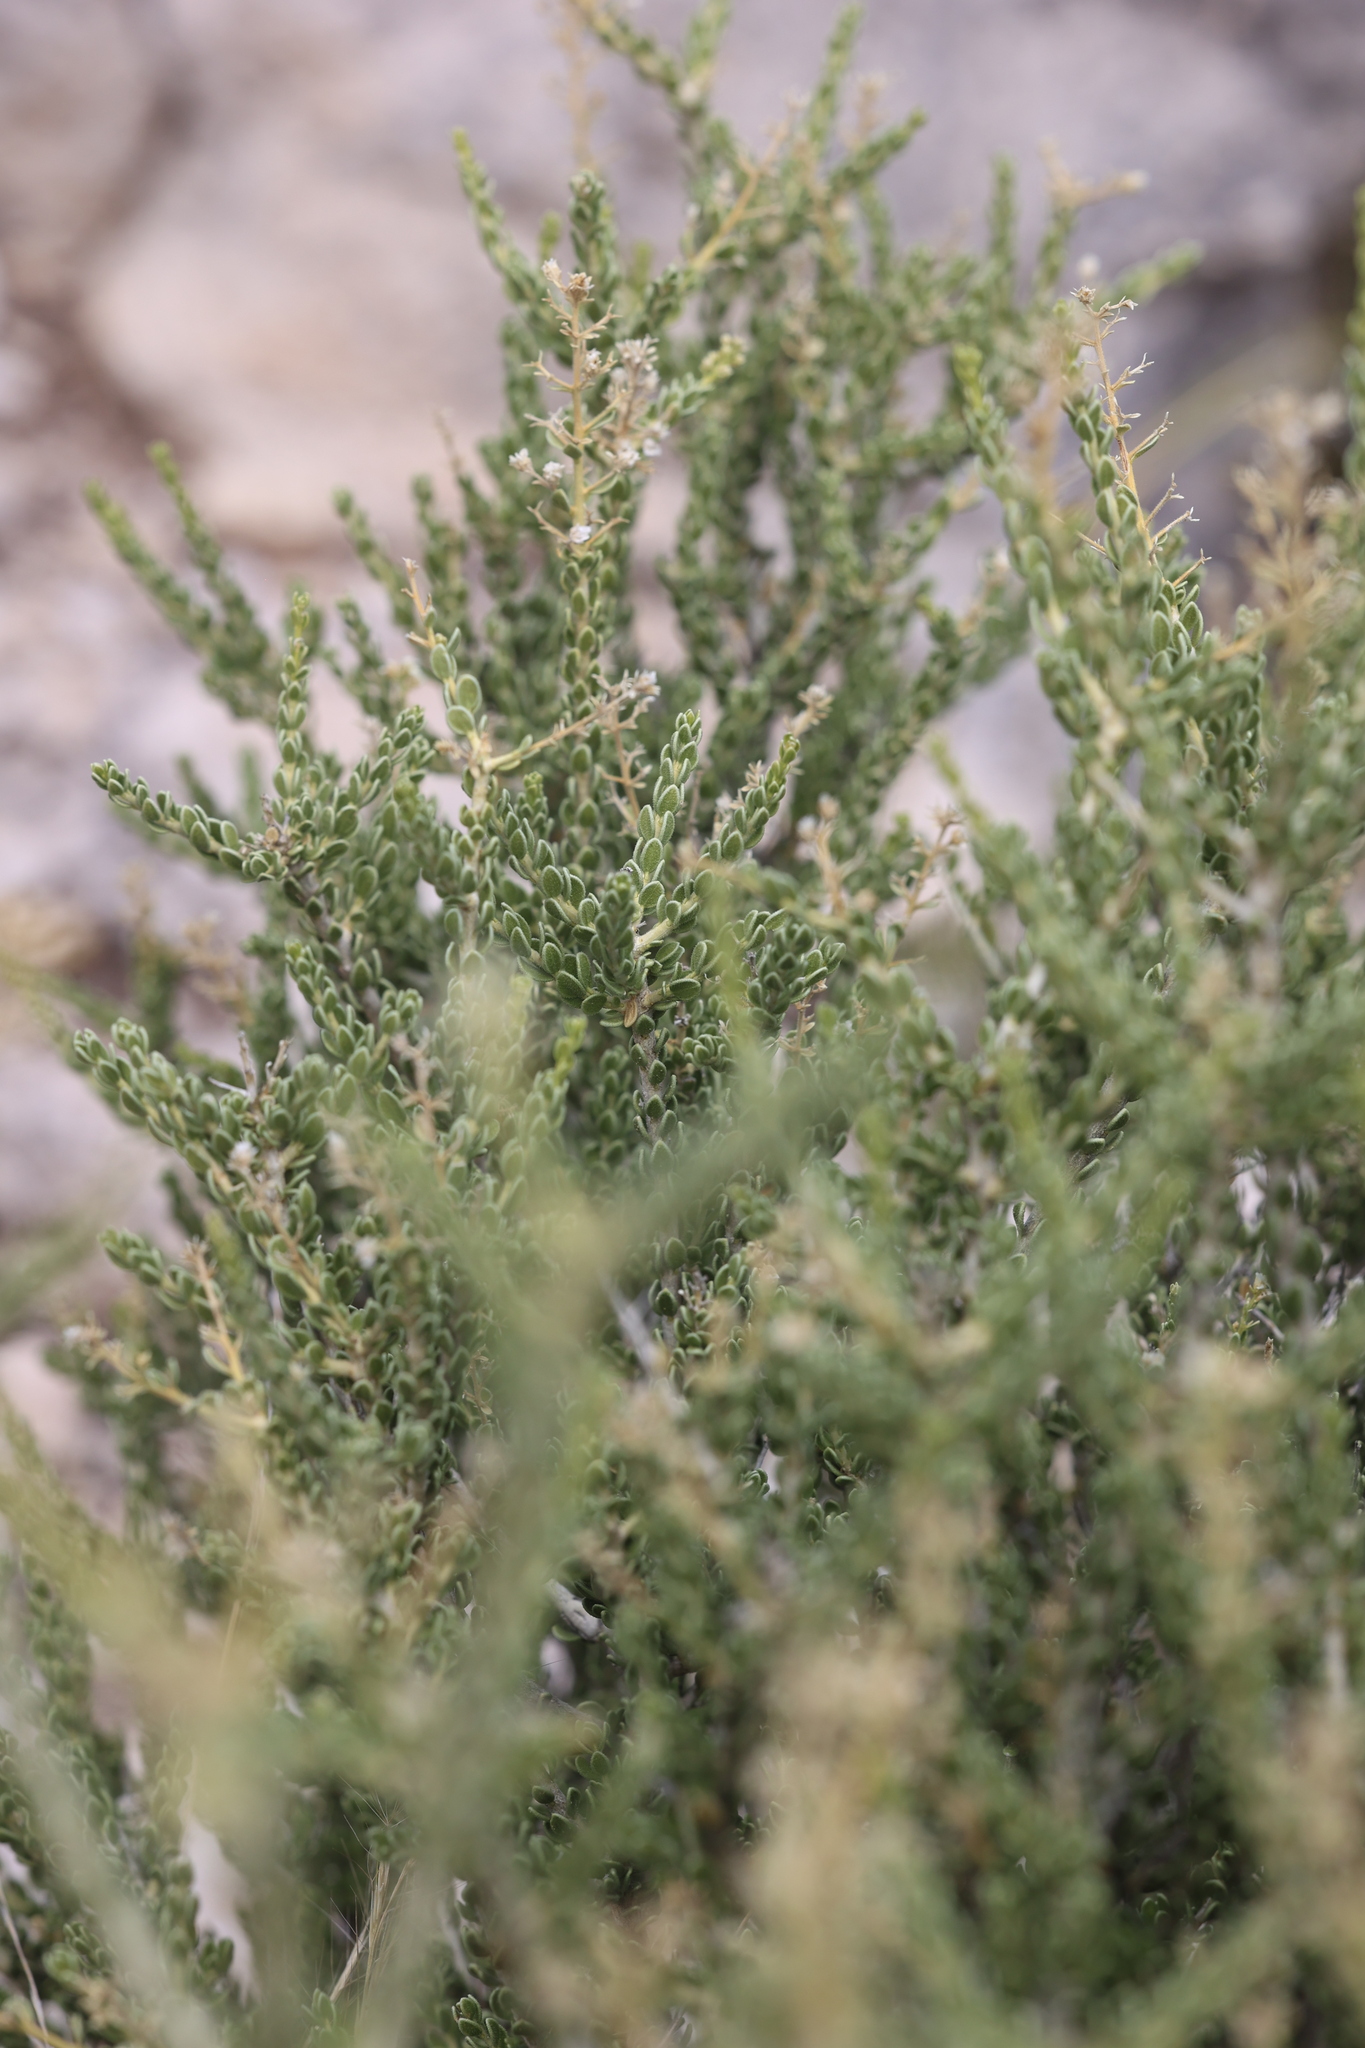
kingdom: Plantae
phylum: Tracheophyta
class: Magnoliopsida
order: Celastrales
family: Celastraceae
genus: Mortonia
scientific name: Mortonia scabrella
